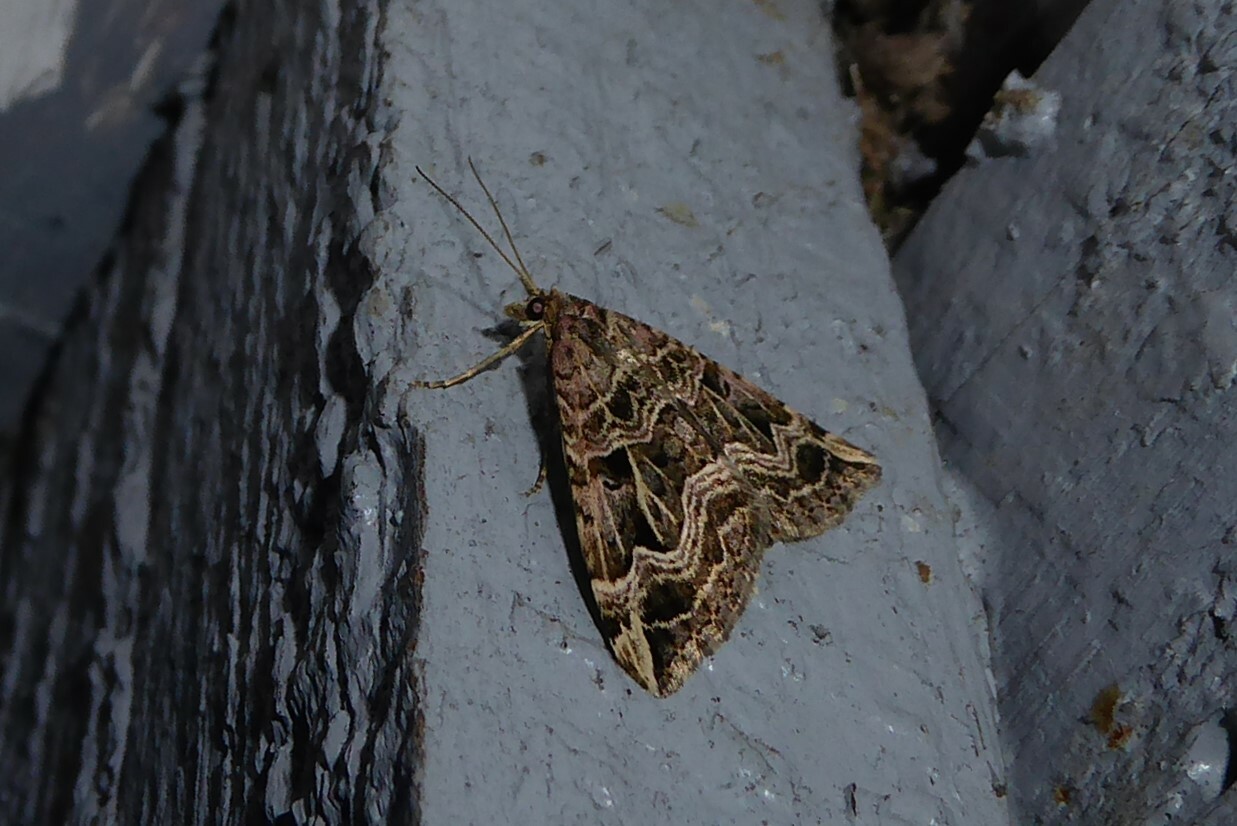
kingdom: Animalia
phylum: Arthropoda
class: Insecta
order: Lepidoptera
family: Geometridae
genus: Xanthorhoe
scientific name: Xanthorhoe semifissata
